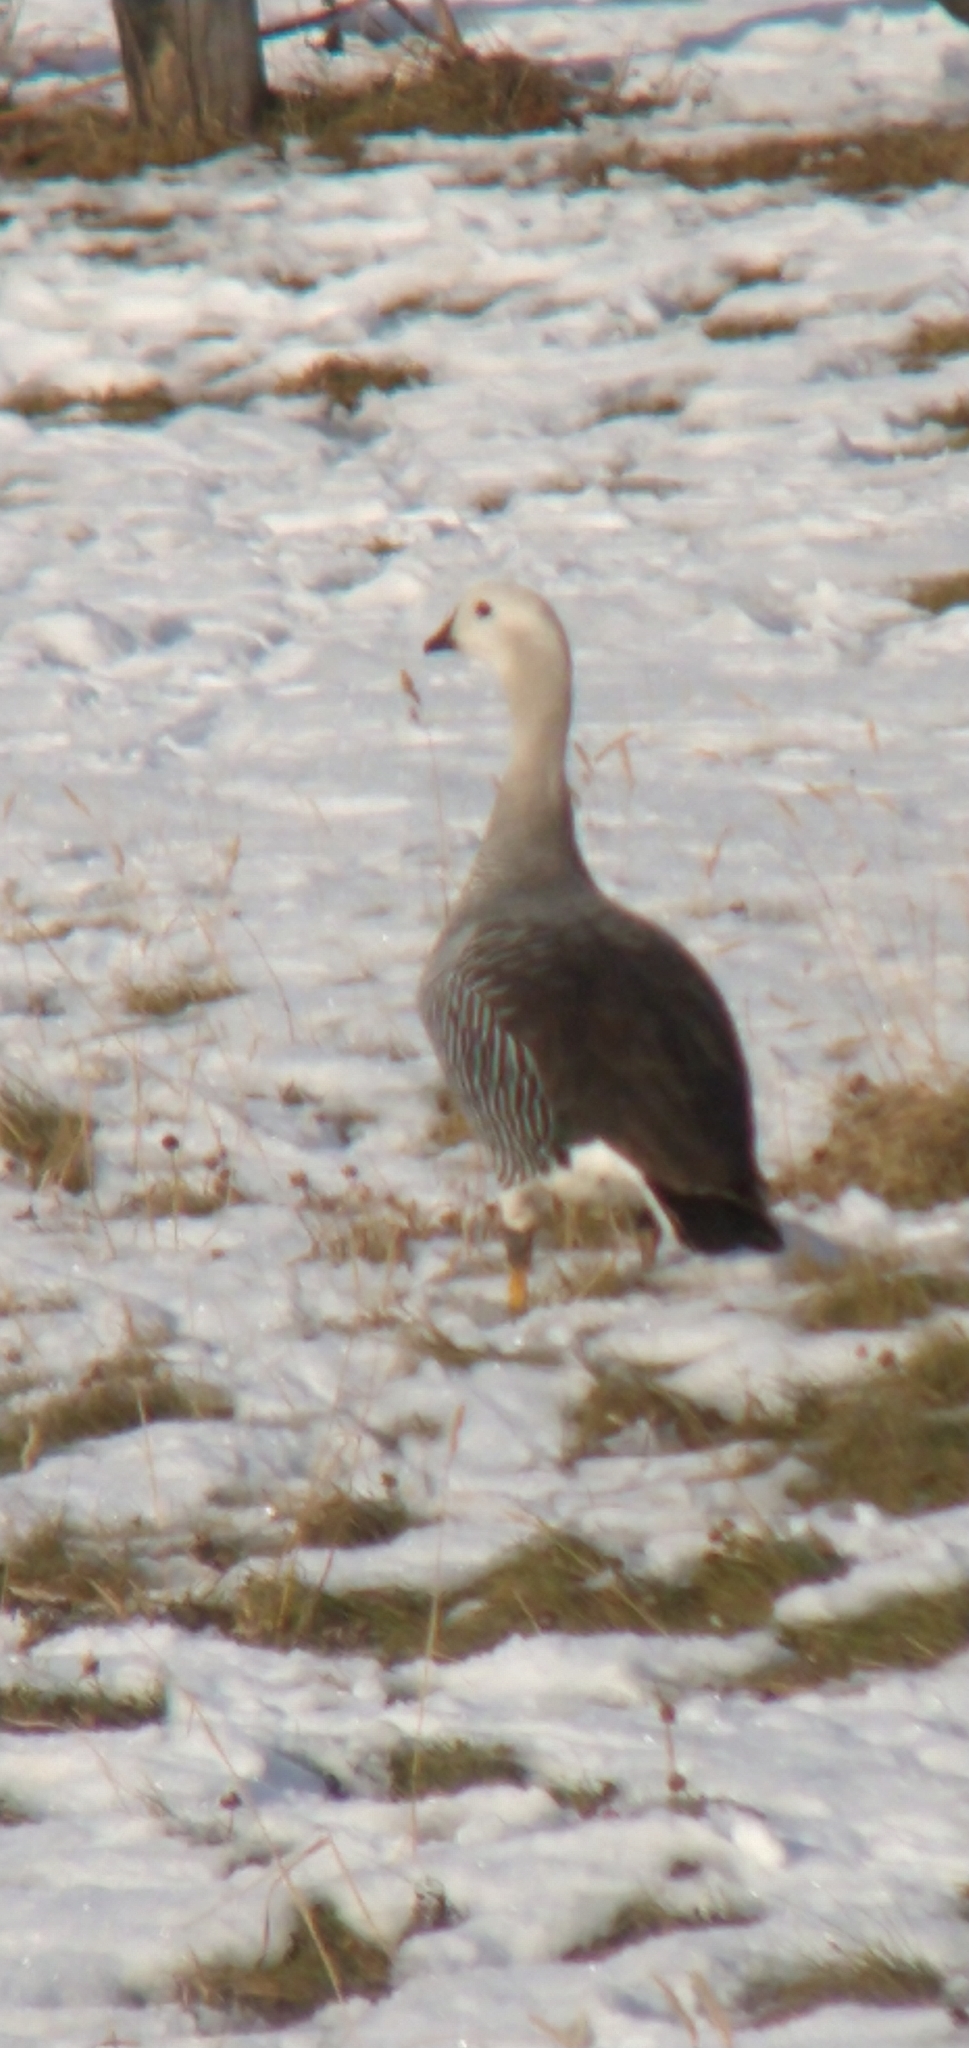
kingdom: Animalia
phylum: Chordata
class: Aves
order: Anseriformes
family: Anatidae
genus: Chloephaga
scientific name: Chloephaga picta
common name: Upland goose
